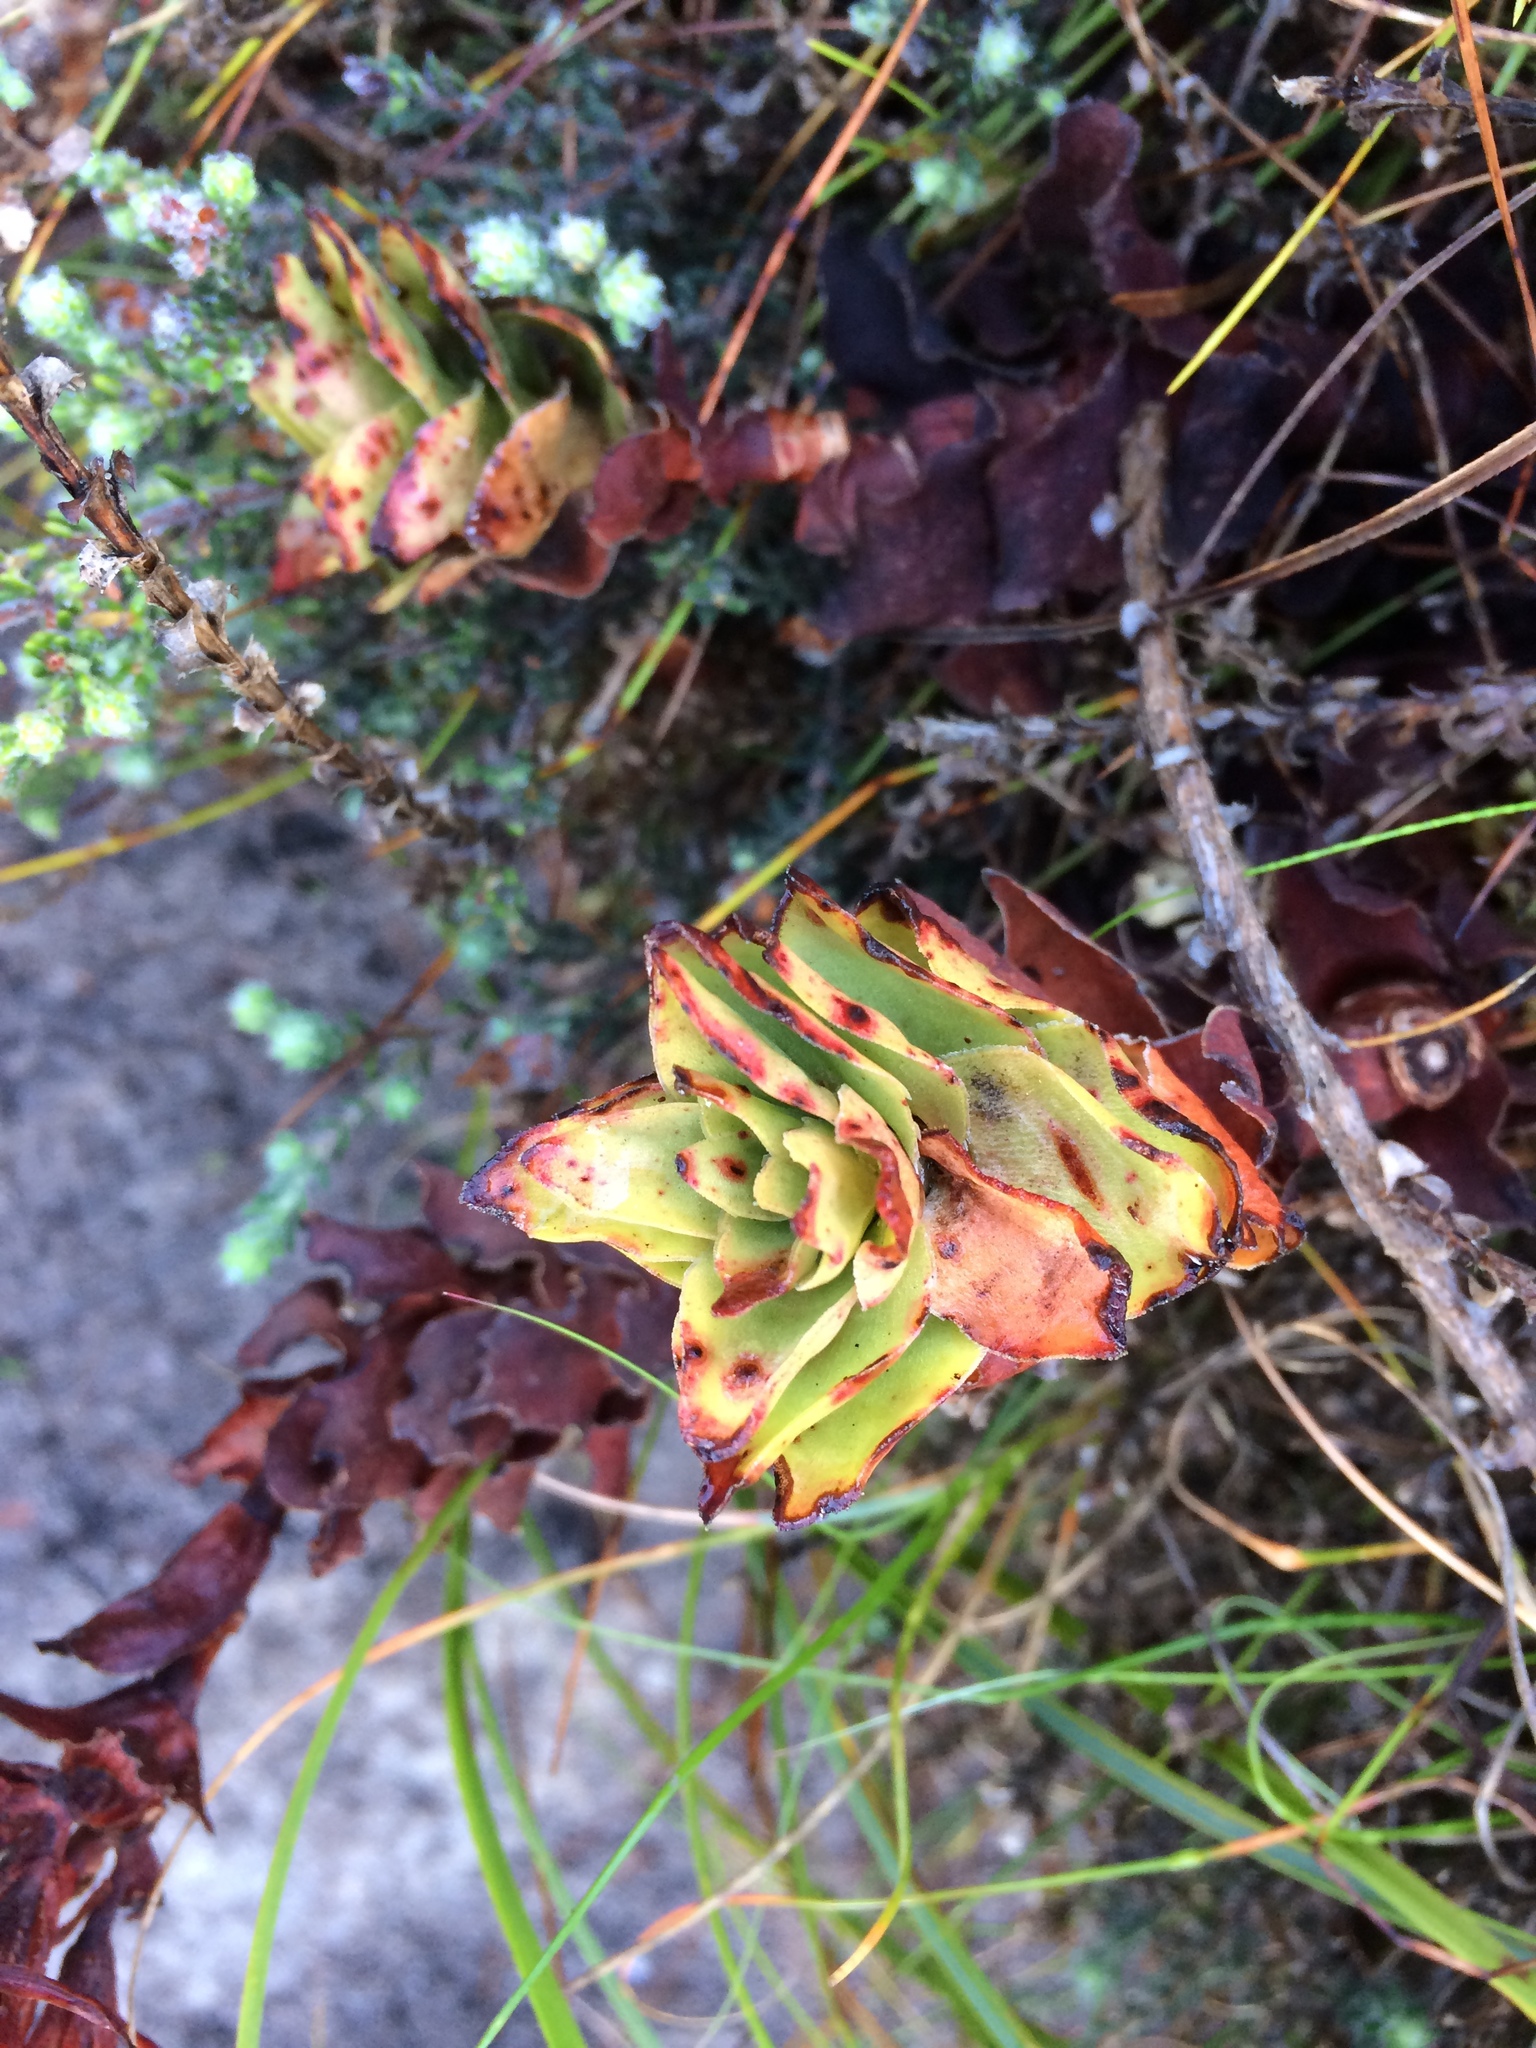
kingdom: Plantae
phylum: Tracheophyta
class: Magnoliopsida
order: Saxifragales
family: Crassulaceae
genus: Crassula
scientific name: Crassula coccinea
